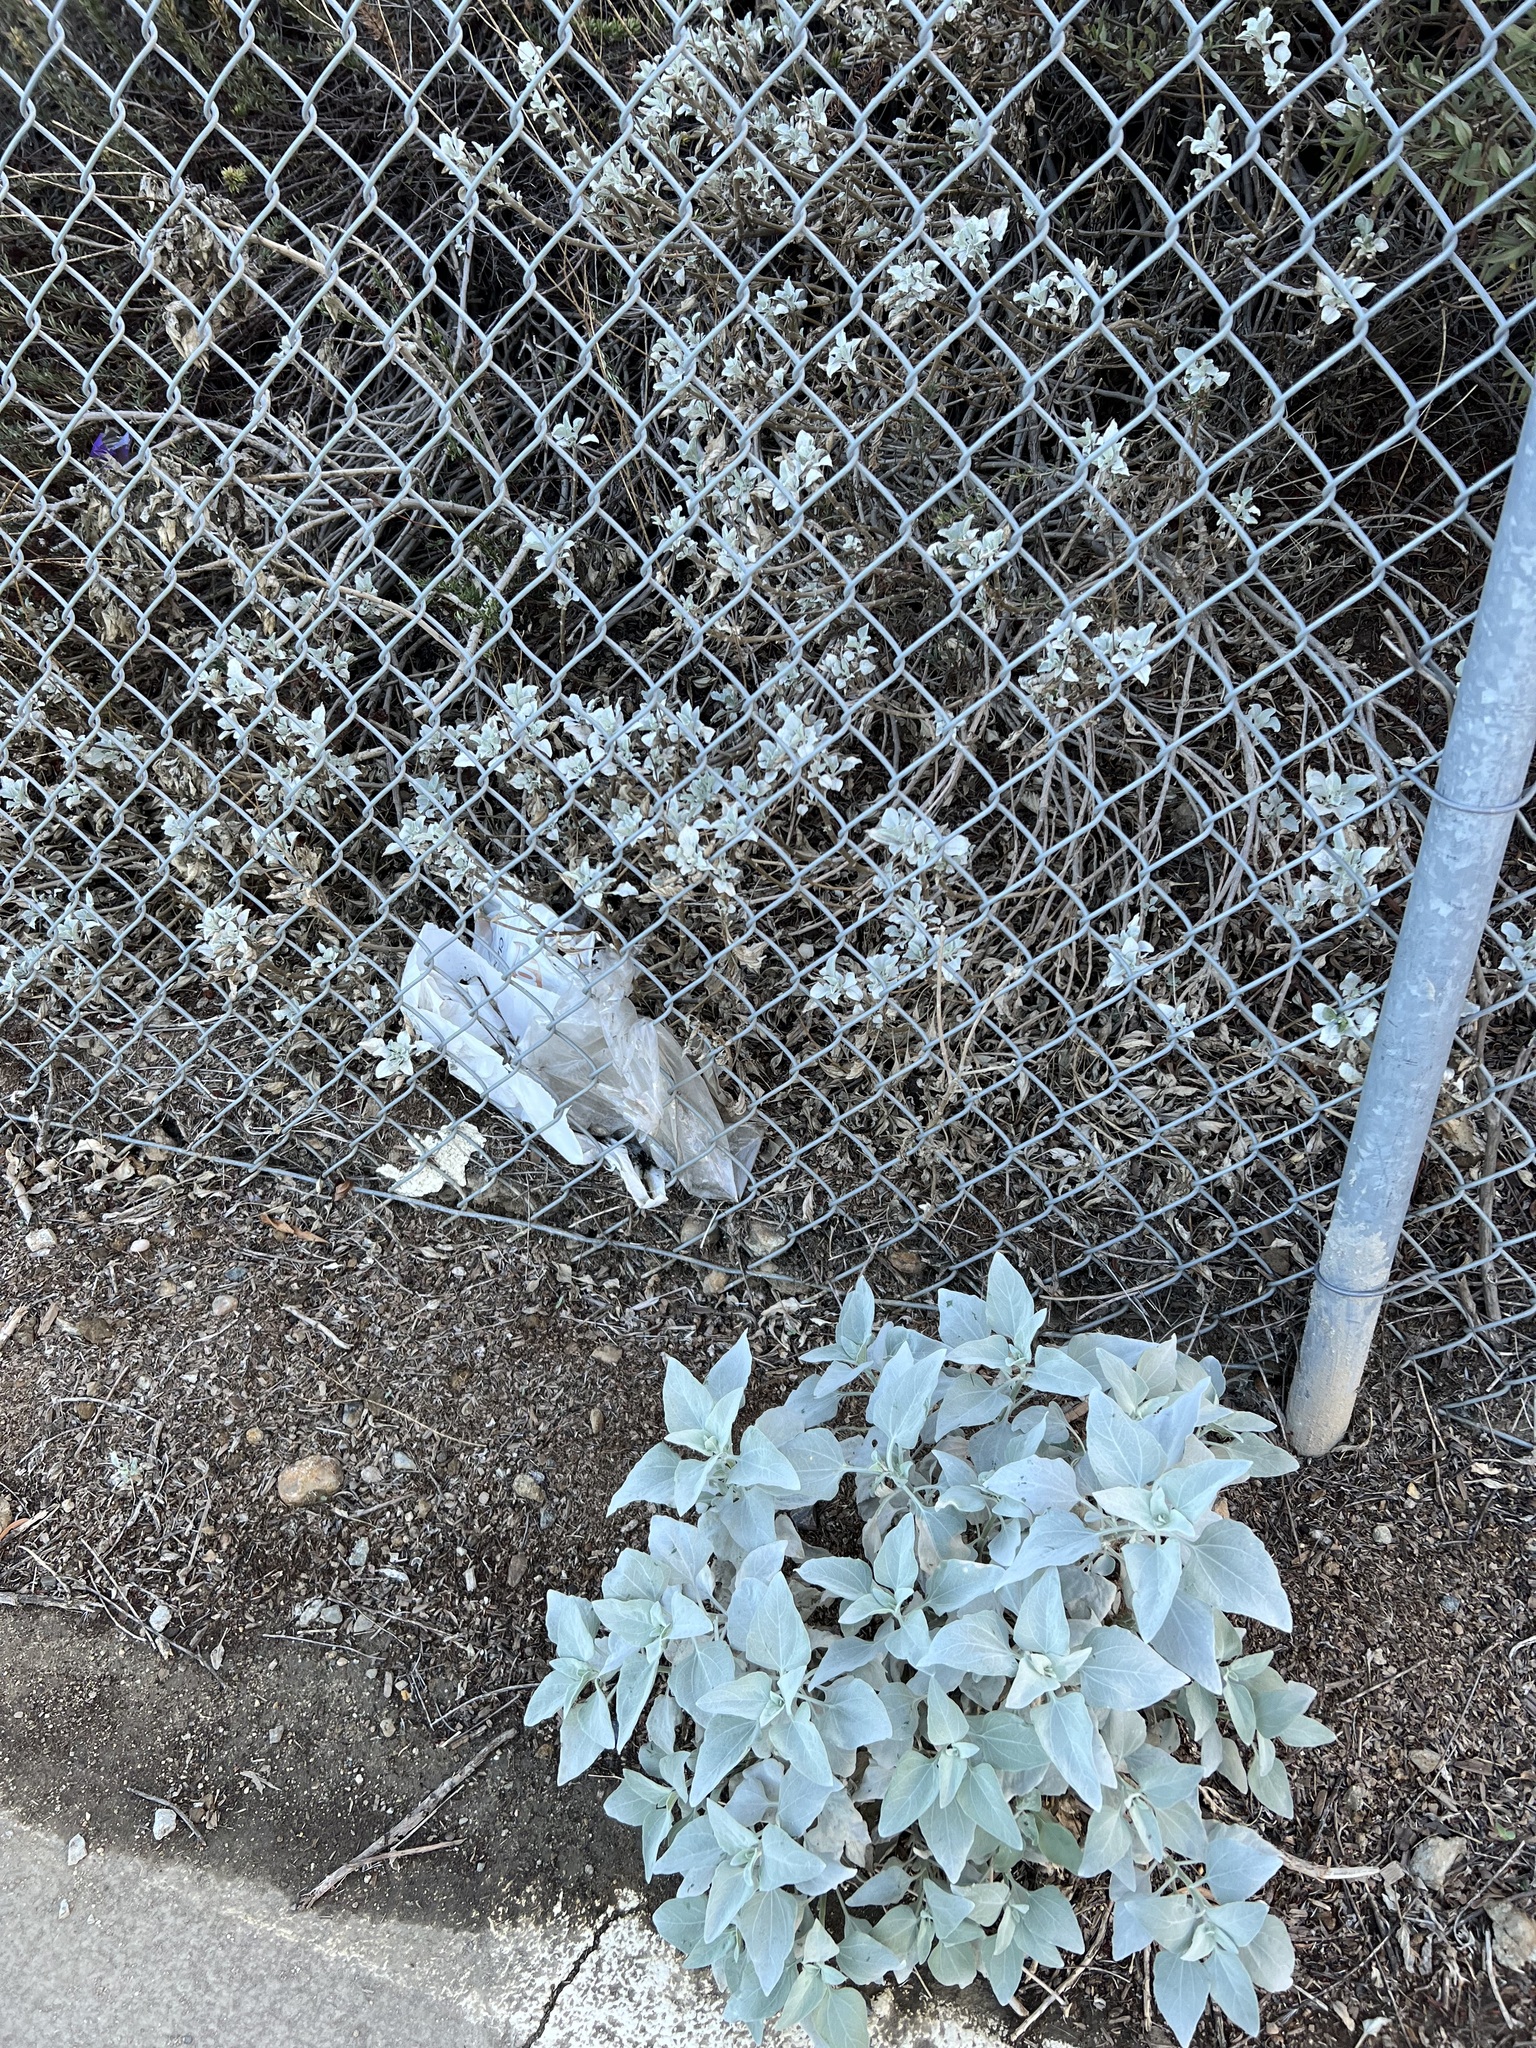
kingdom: Plantae
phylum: Tracheophyta
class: Magnoliopsida
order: Asterales
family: Asteraceae
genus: Encelia
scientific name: Encelia farinosa
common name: Brittlebush
